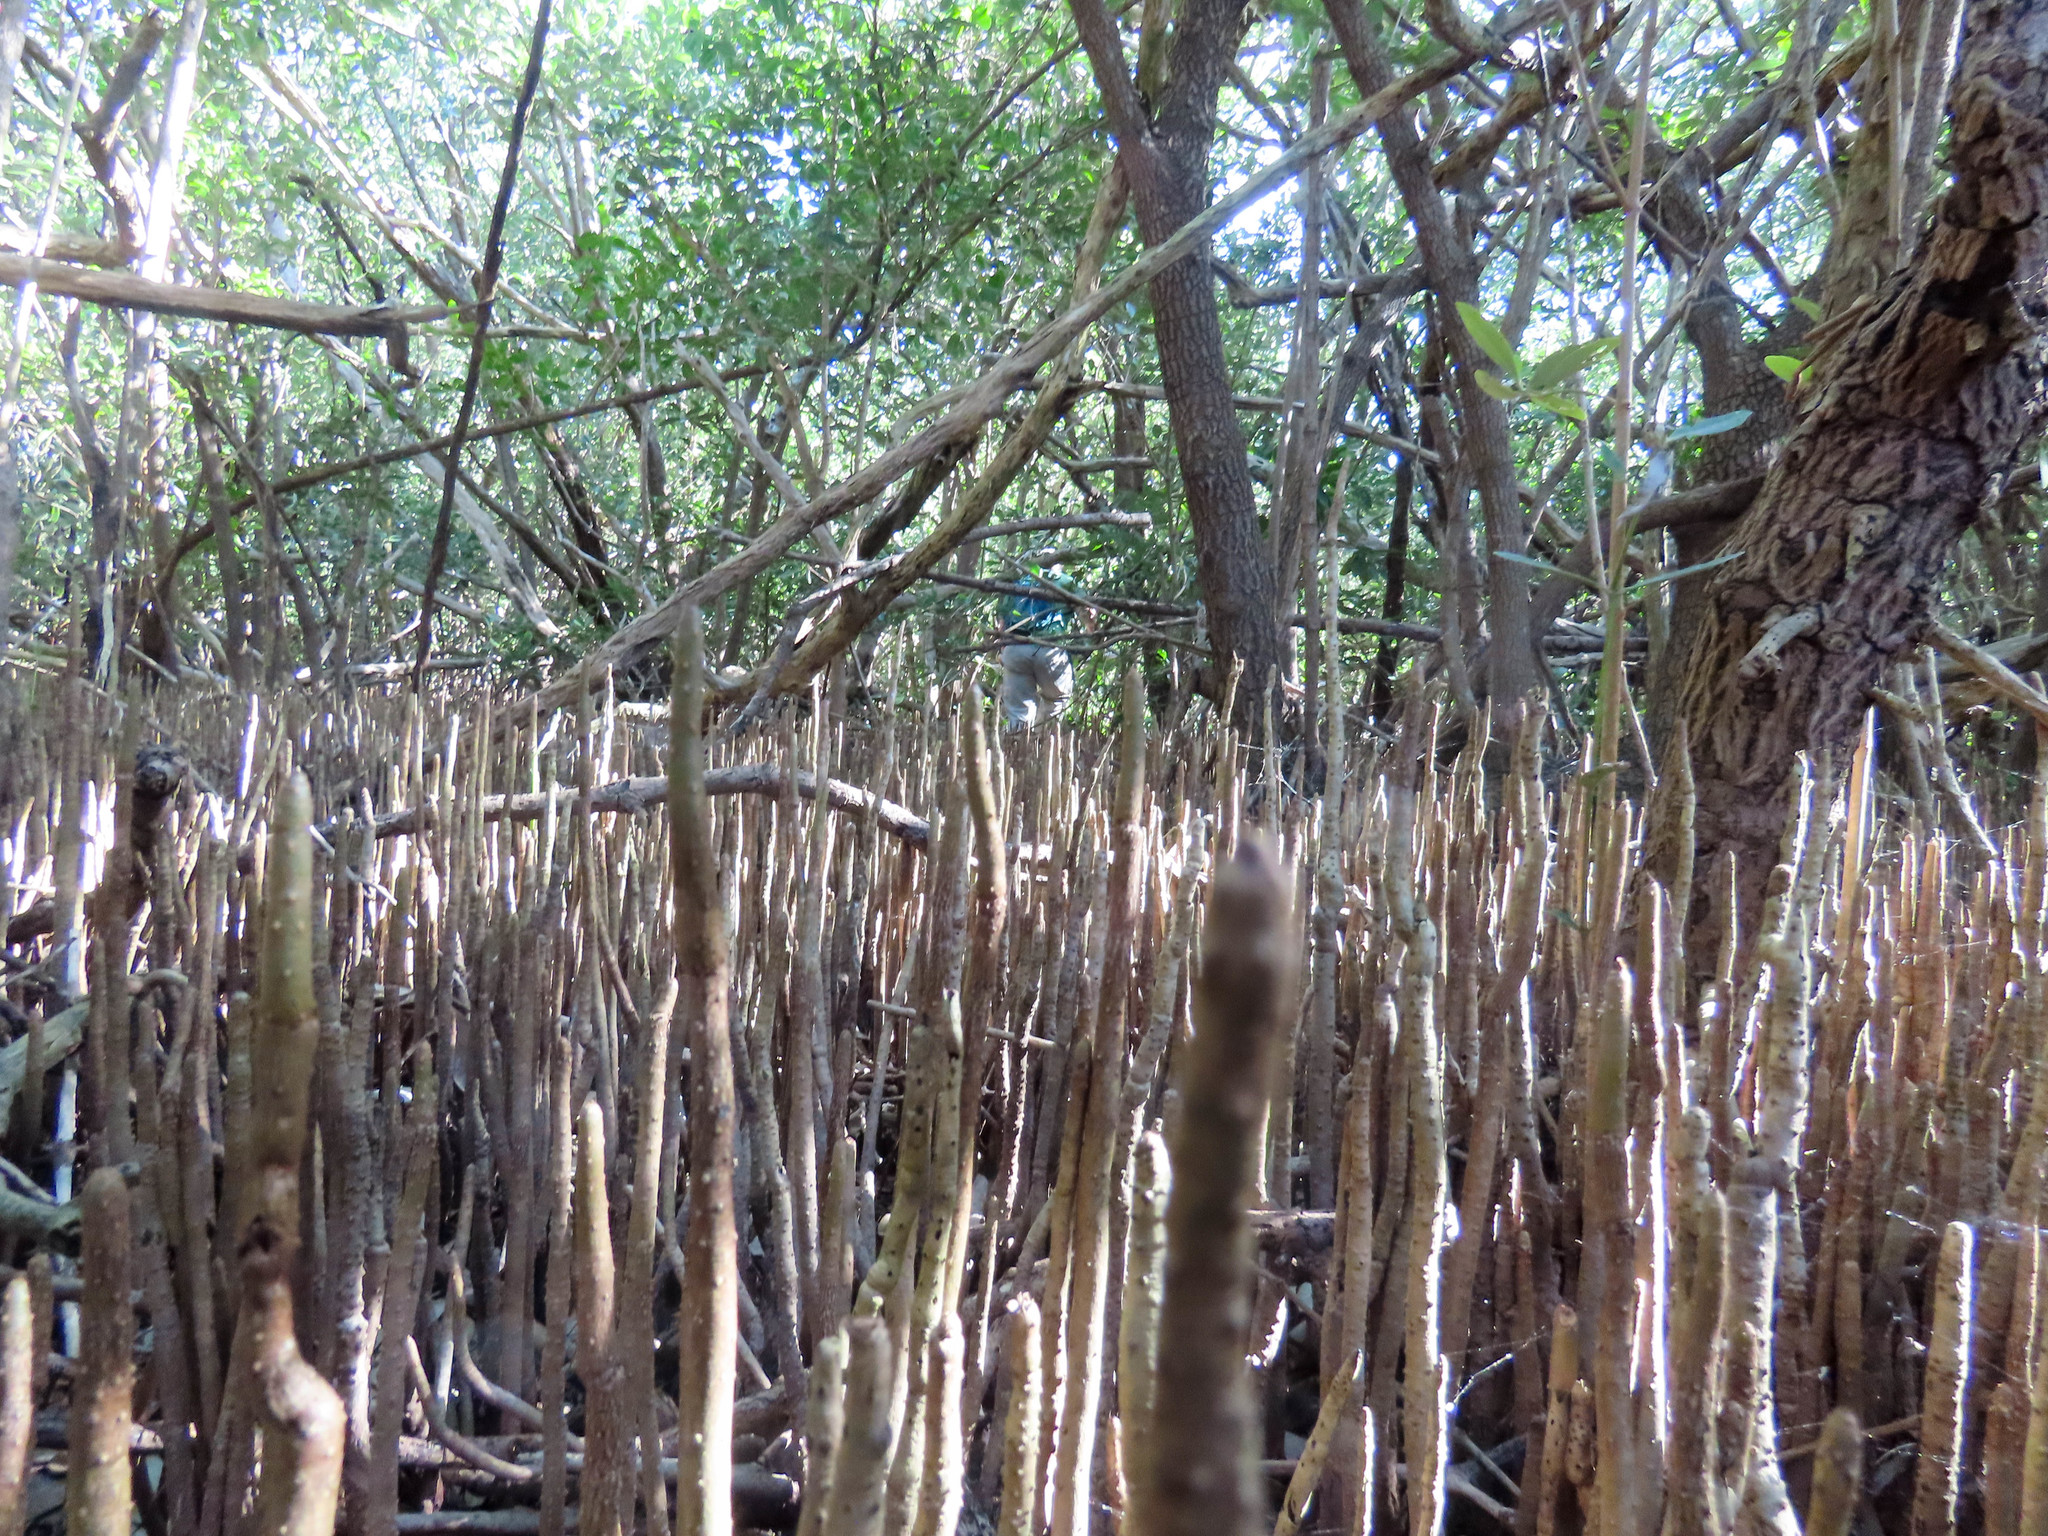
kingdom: Plantae
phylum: Tracheophyta
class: Magnoliopsida
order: Lamiales
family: Acanthaceae
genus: Avicennia
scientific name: Avicennia germinans
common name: Black mangrove
